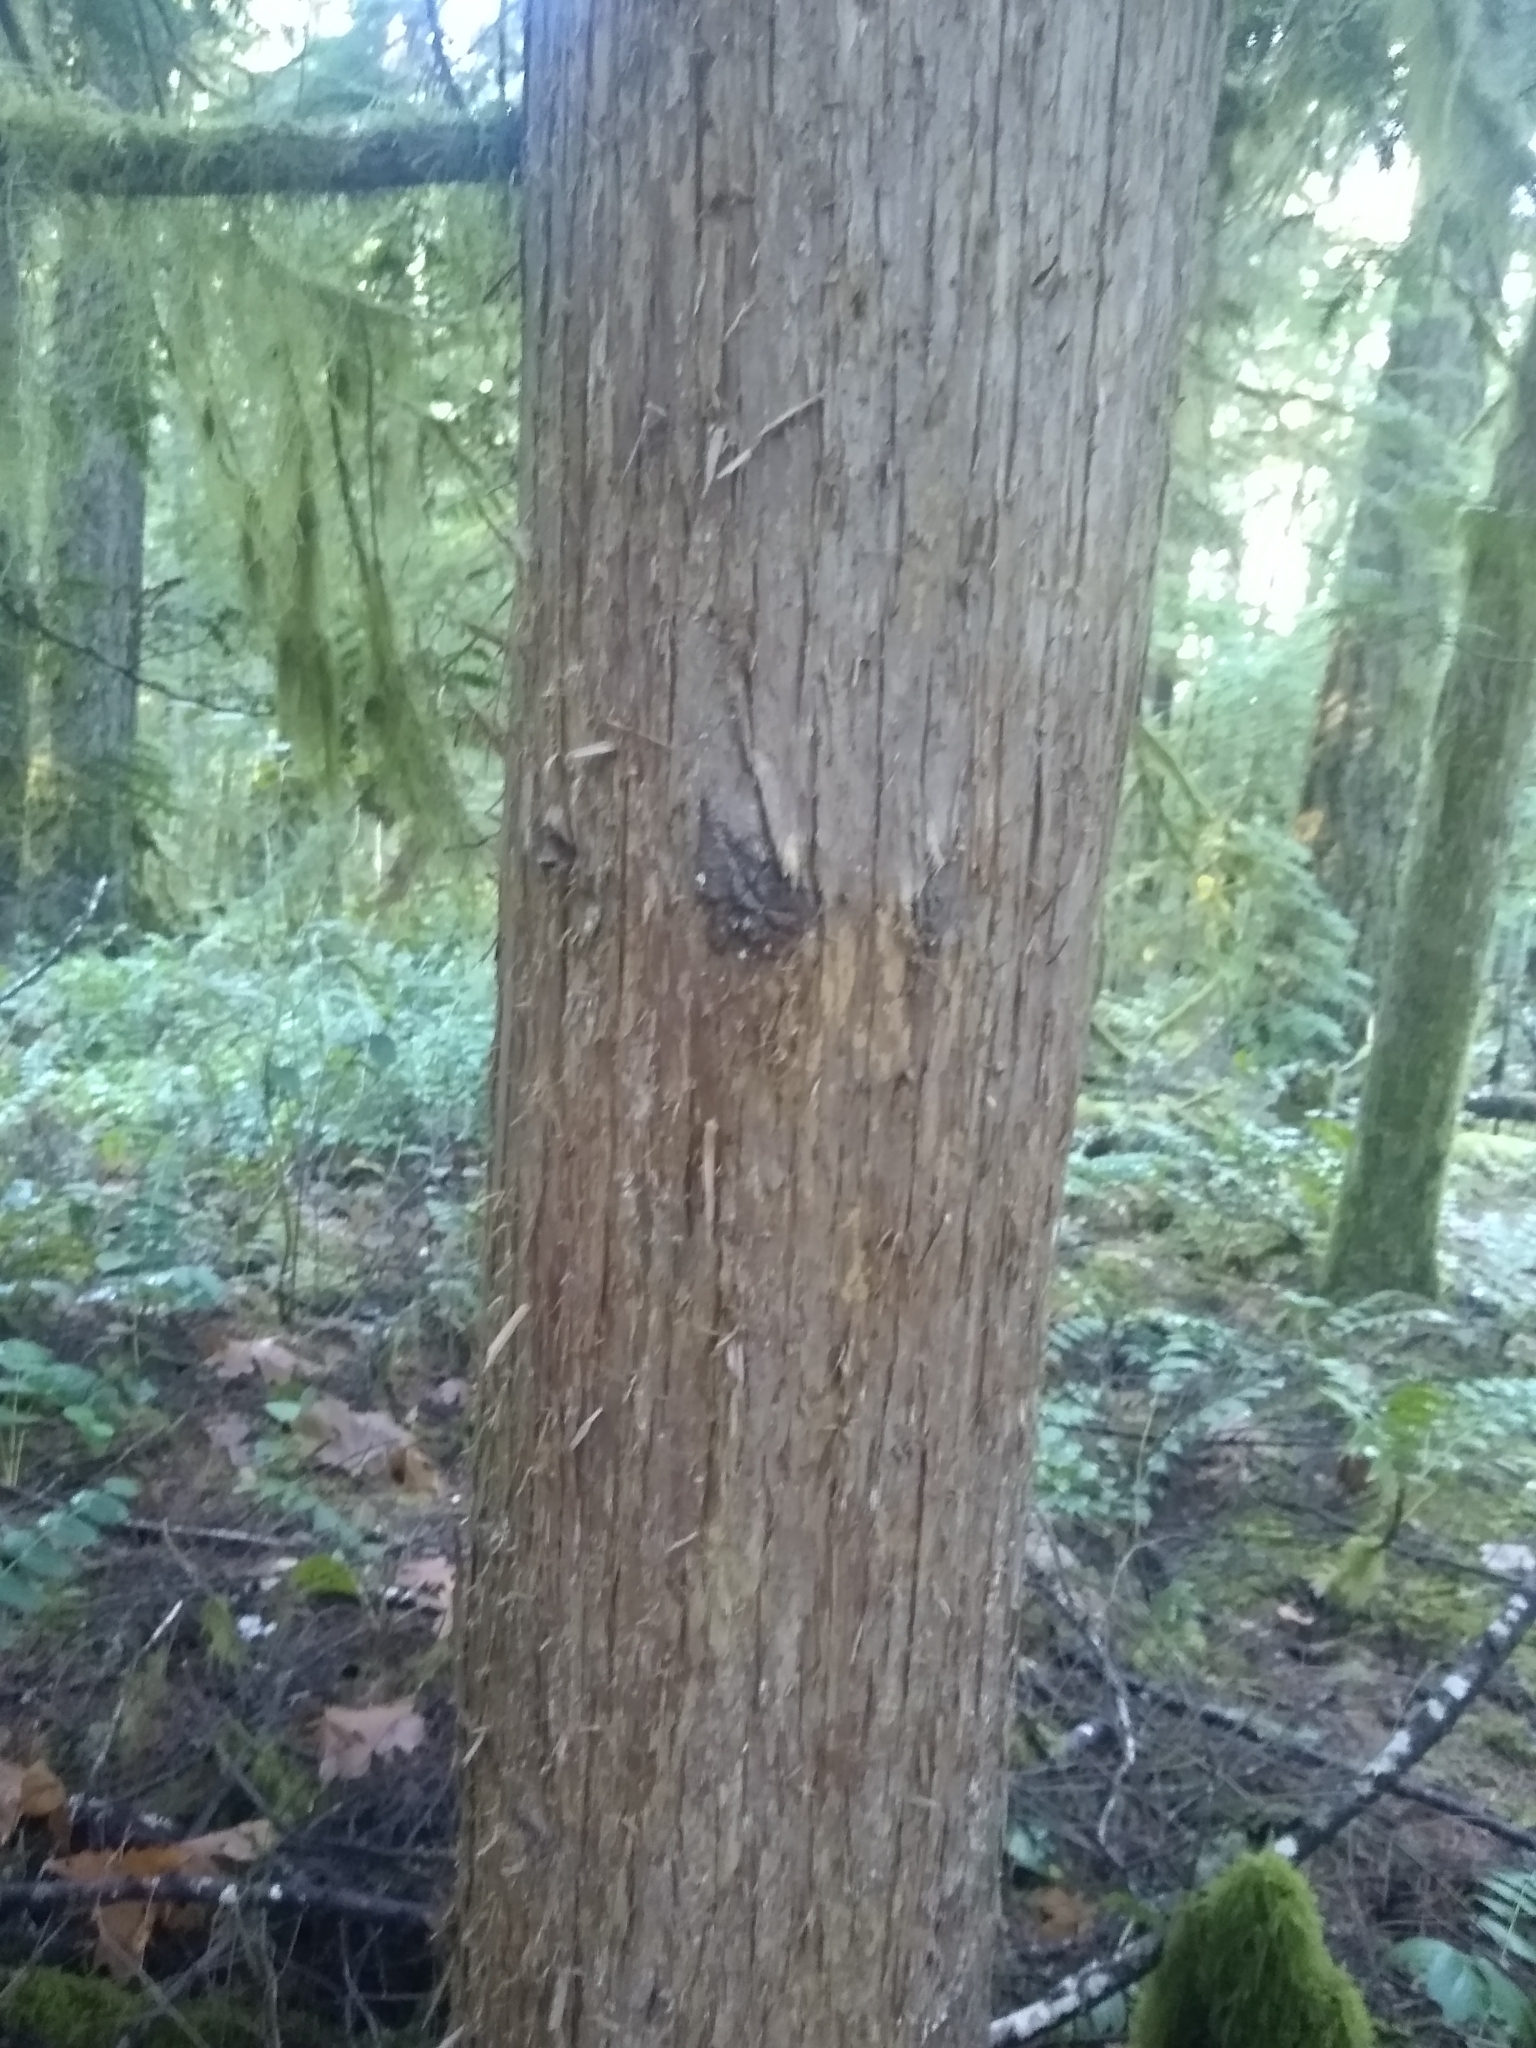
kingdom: Plantae
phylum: Tracheophyta
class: Pinopsida
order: Pinales
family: Cupressaceae
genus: Thuja
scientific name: Thuja plicata
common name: Western red-cedar
